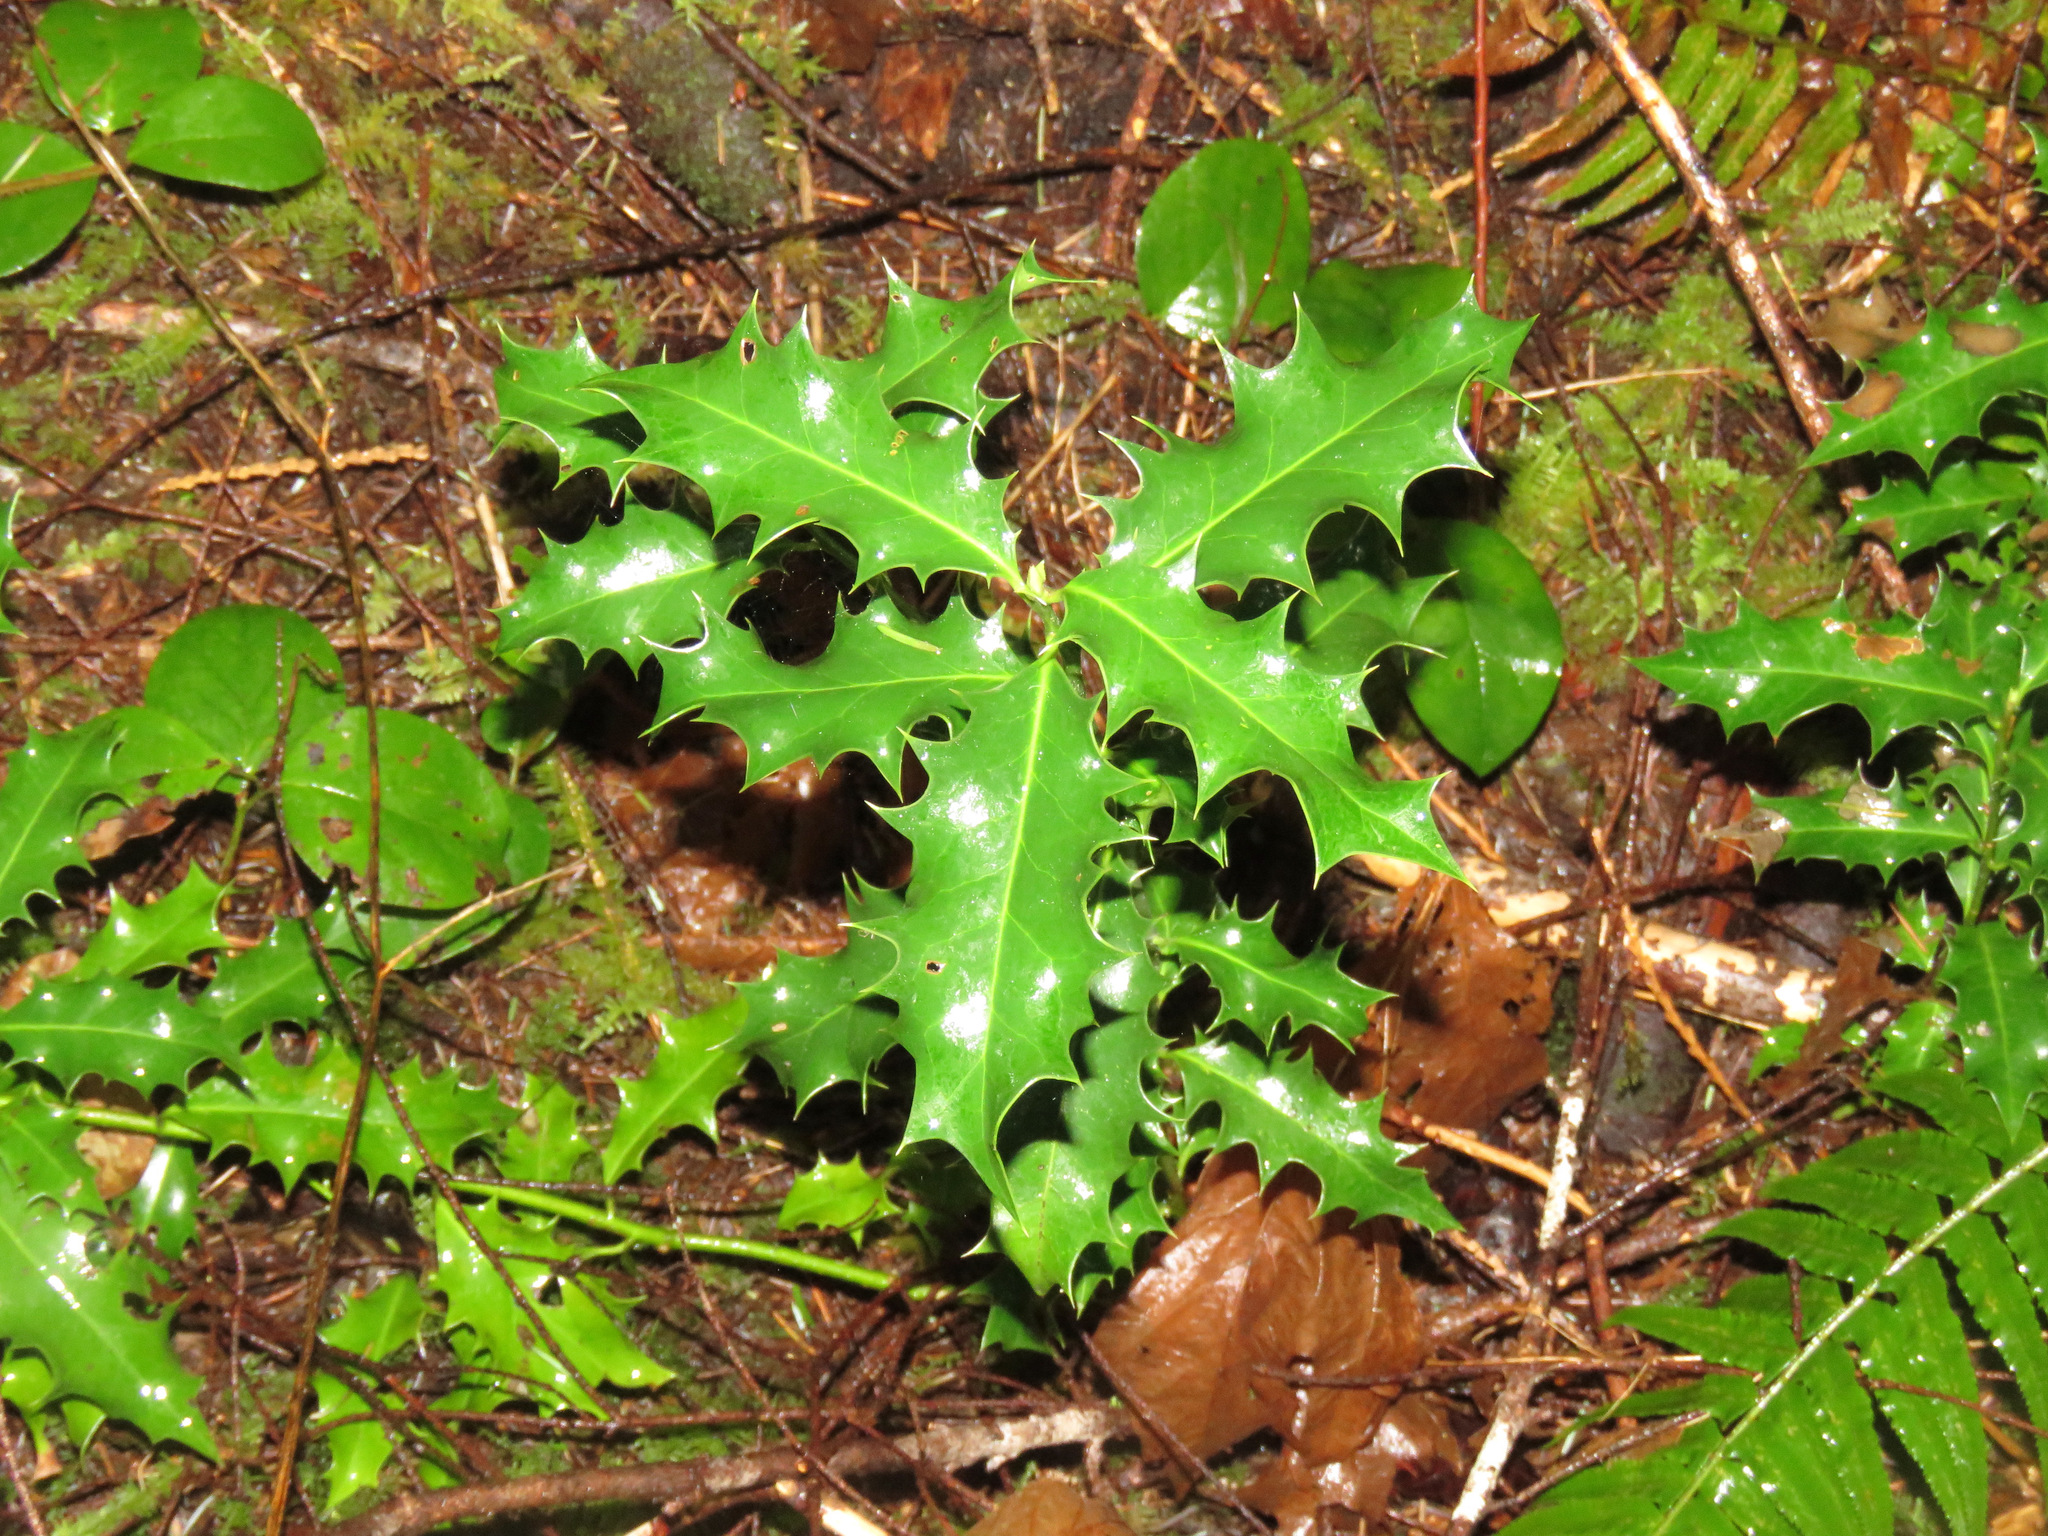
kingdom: Plantae
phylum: Tracheophyta
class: Magnoliopsida
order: Aquifoliales
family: Aquifoliaceae
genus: Ilex
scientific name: Ilex aquifolium
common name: English holly
